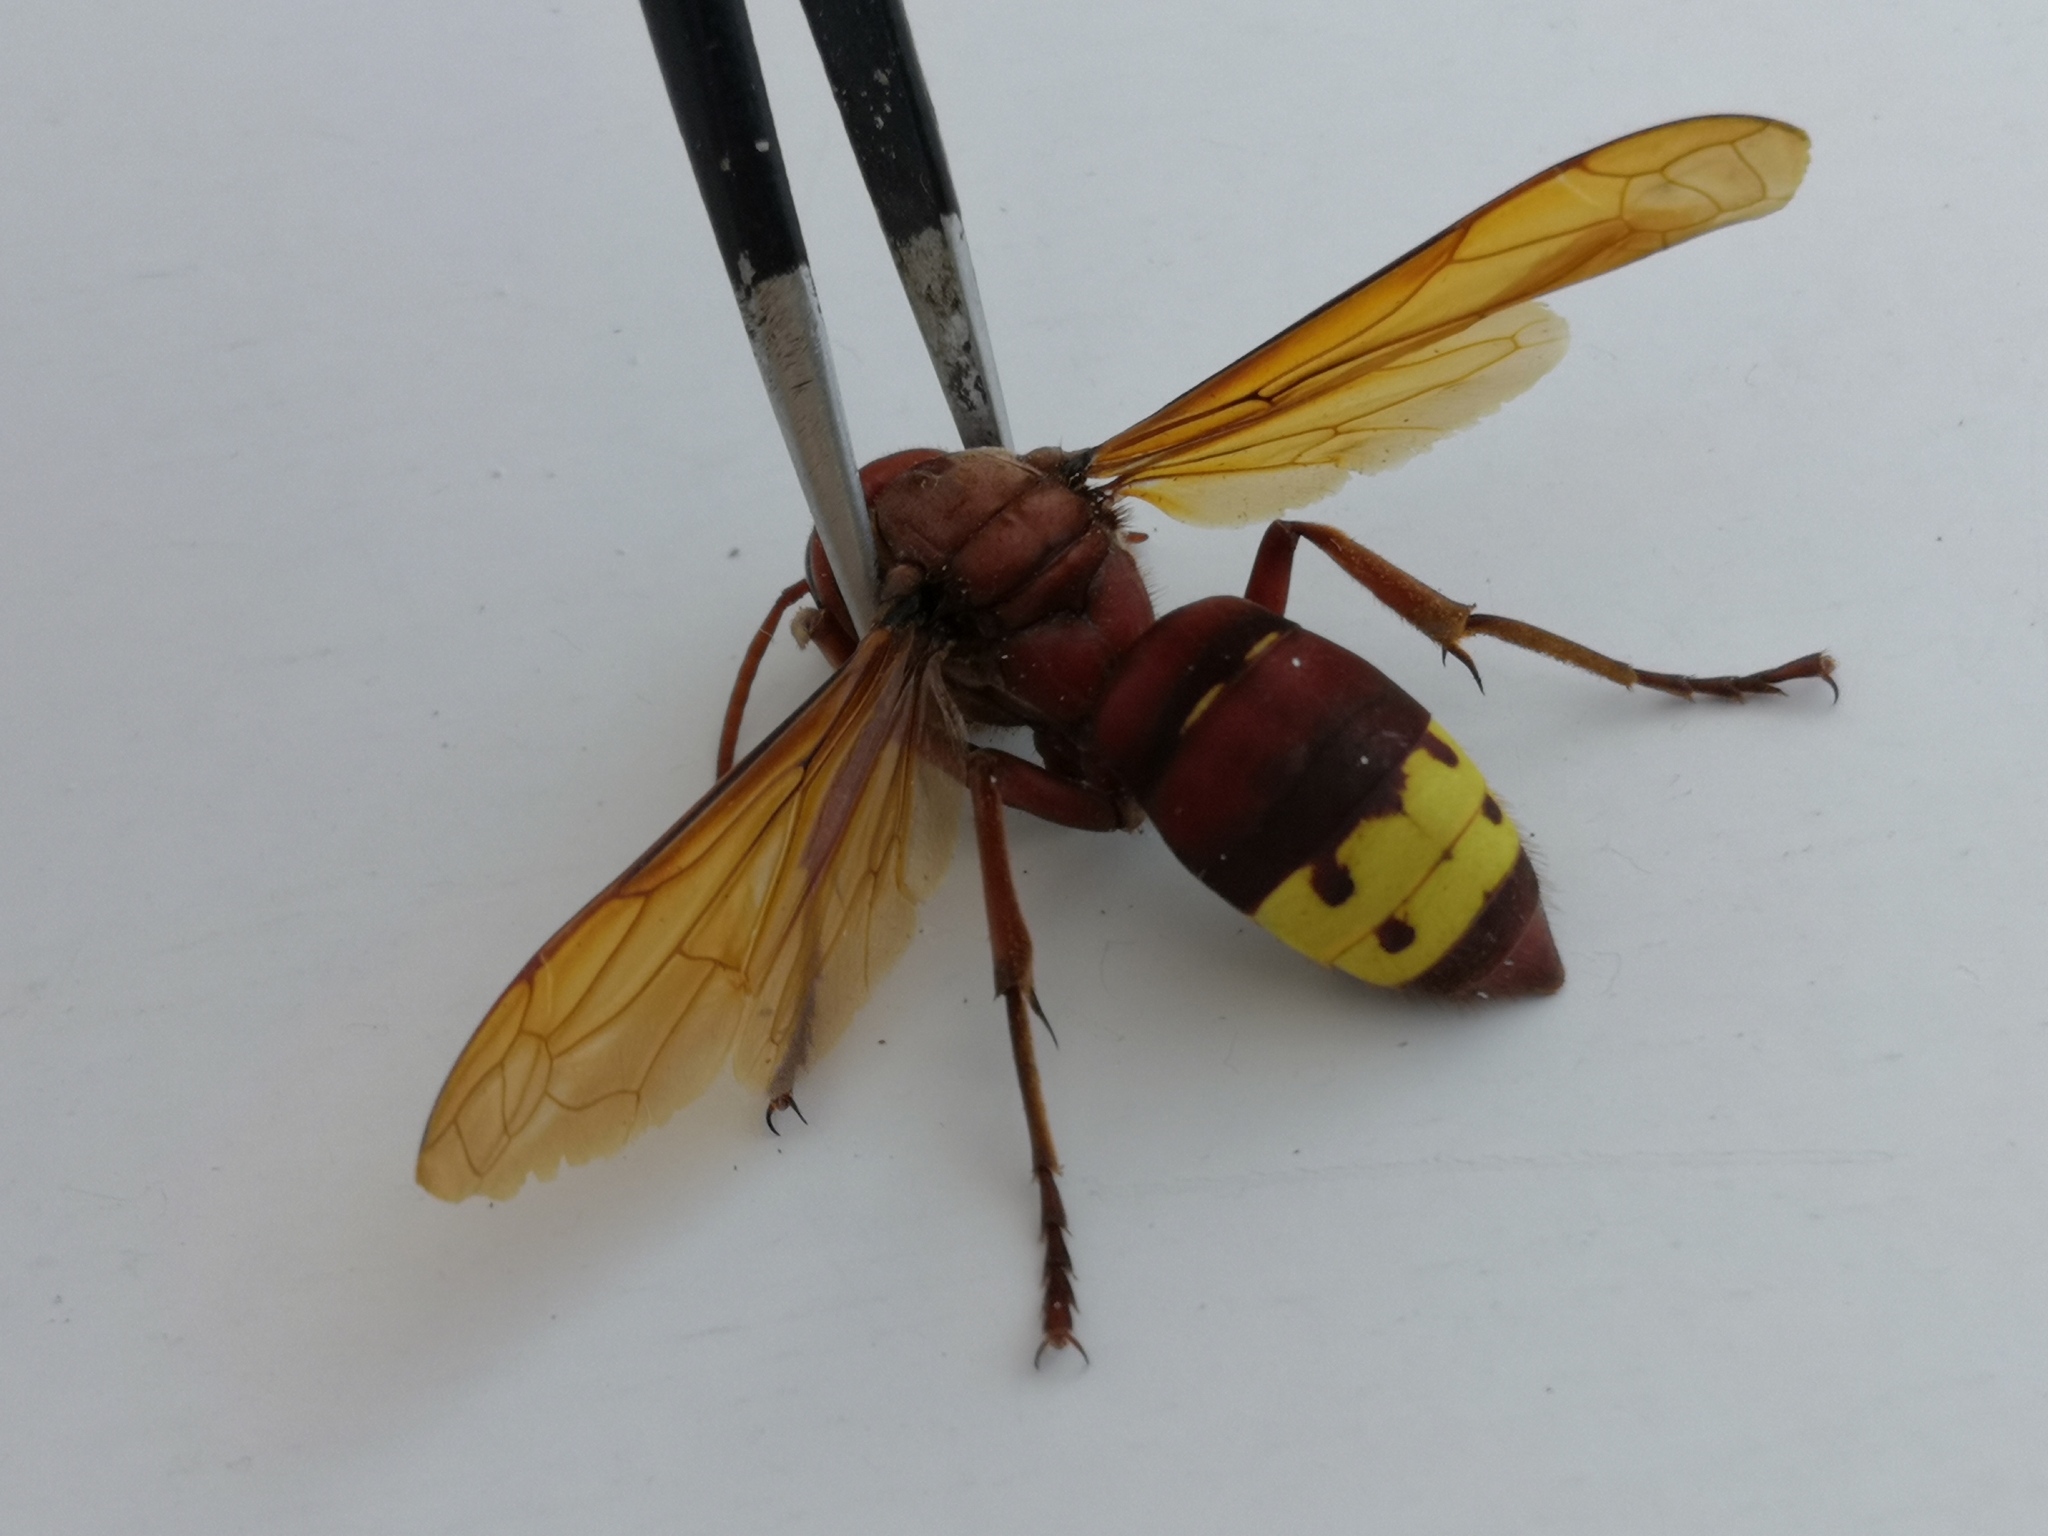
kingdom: Animalia
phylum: Arthropoda
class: Insecta
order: Hymenoptera
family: Vespidae
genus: Vespa
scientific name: Vespa orientalis
